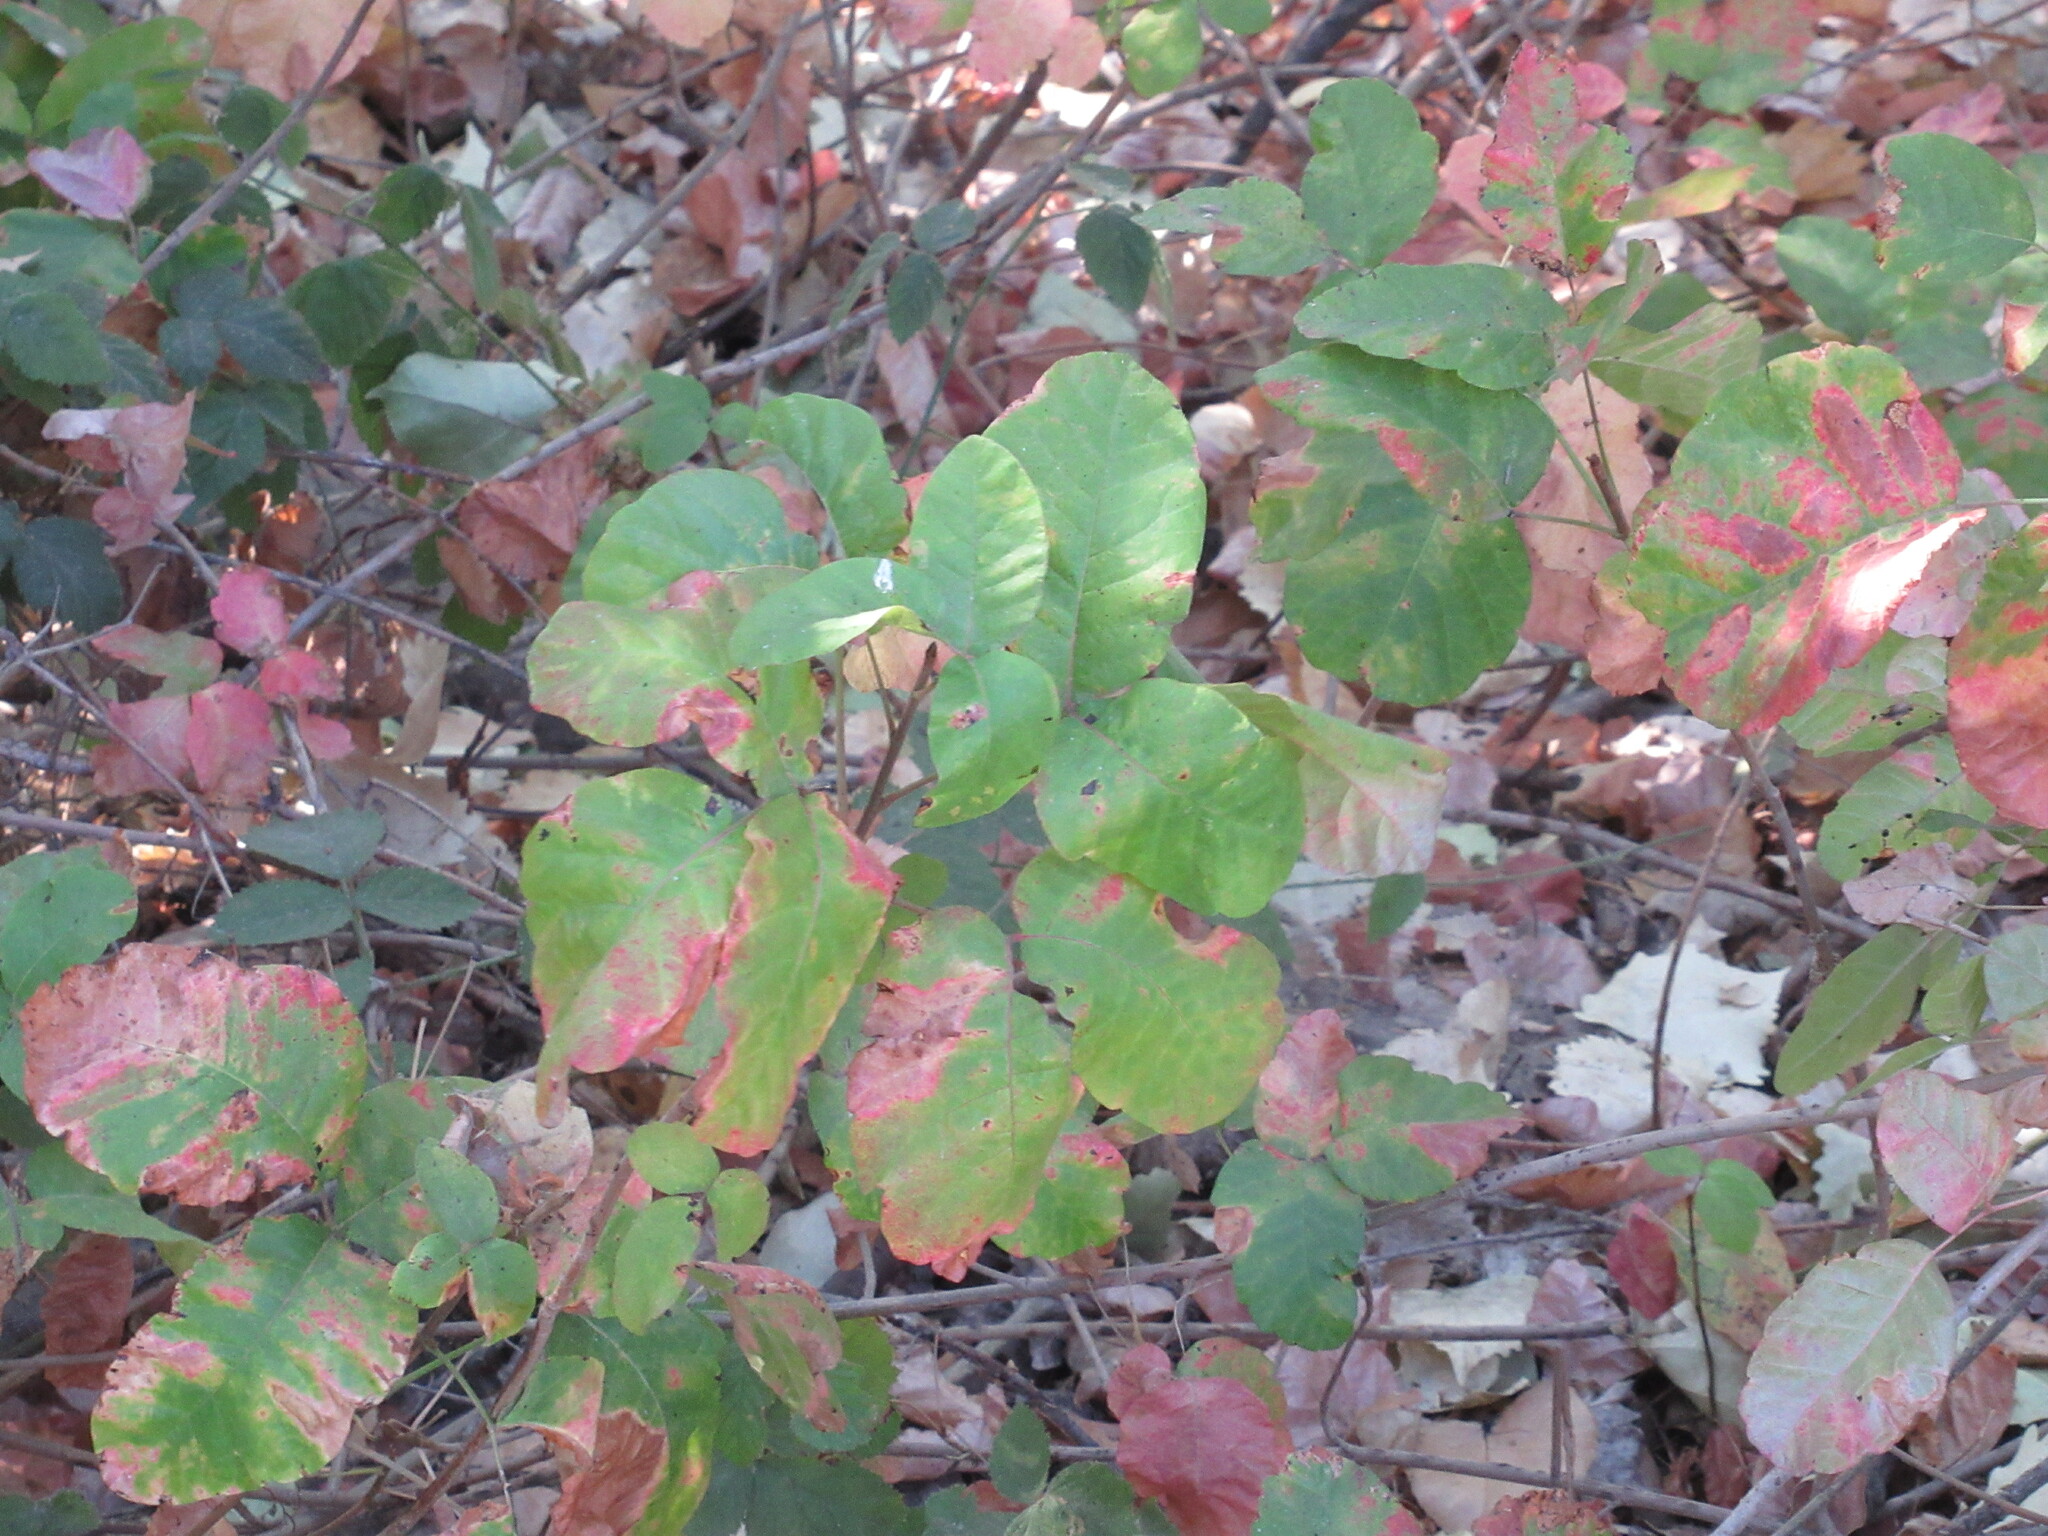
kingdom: Plantae
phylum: Tracheophyta
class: Magnoliopsida
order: Sapindales
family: Anacardiaceae
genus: Toxicodendron
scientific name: Toxicodendron diversilobum
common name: Pacific poison-oak
